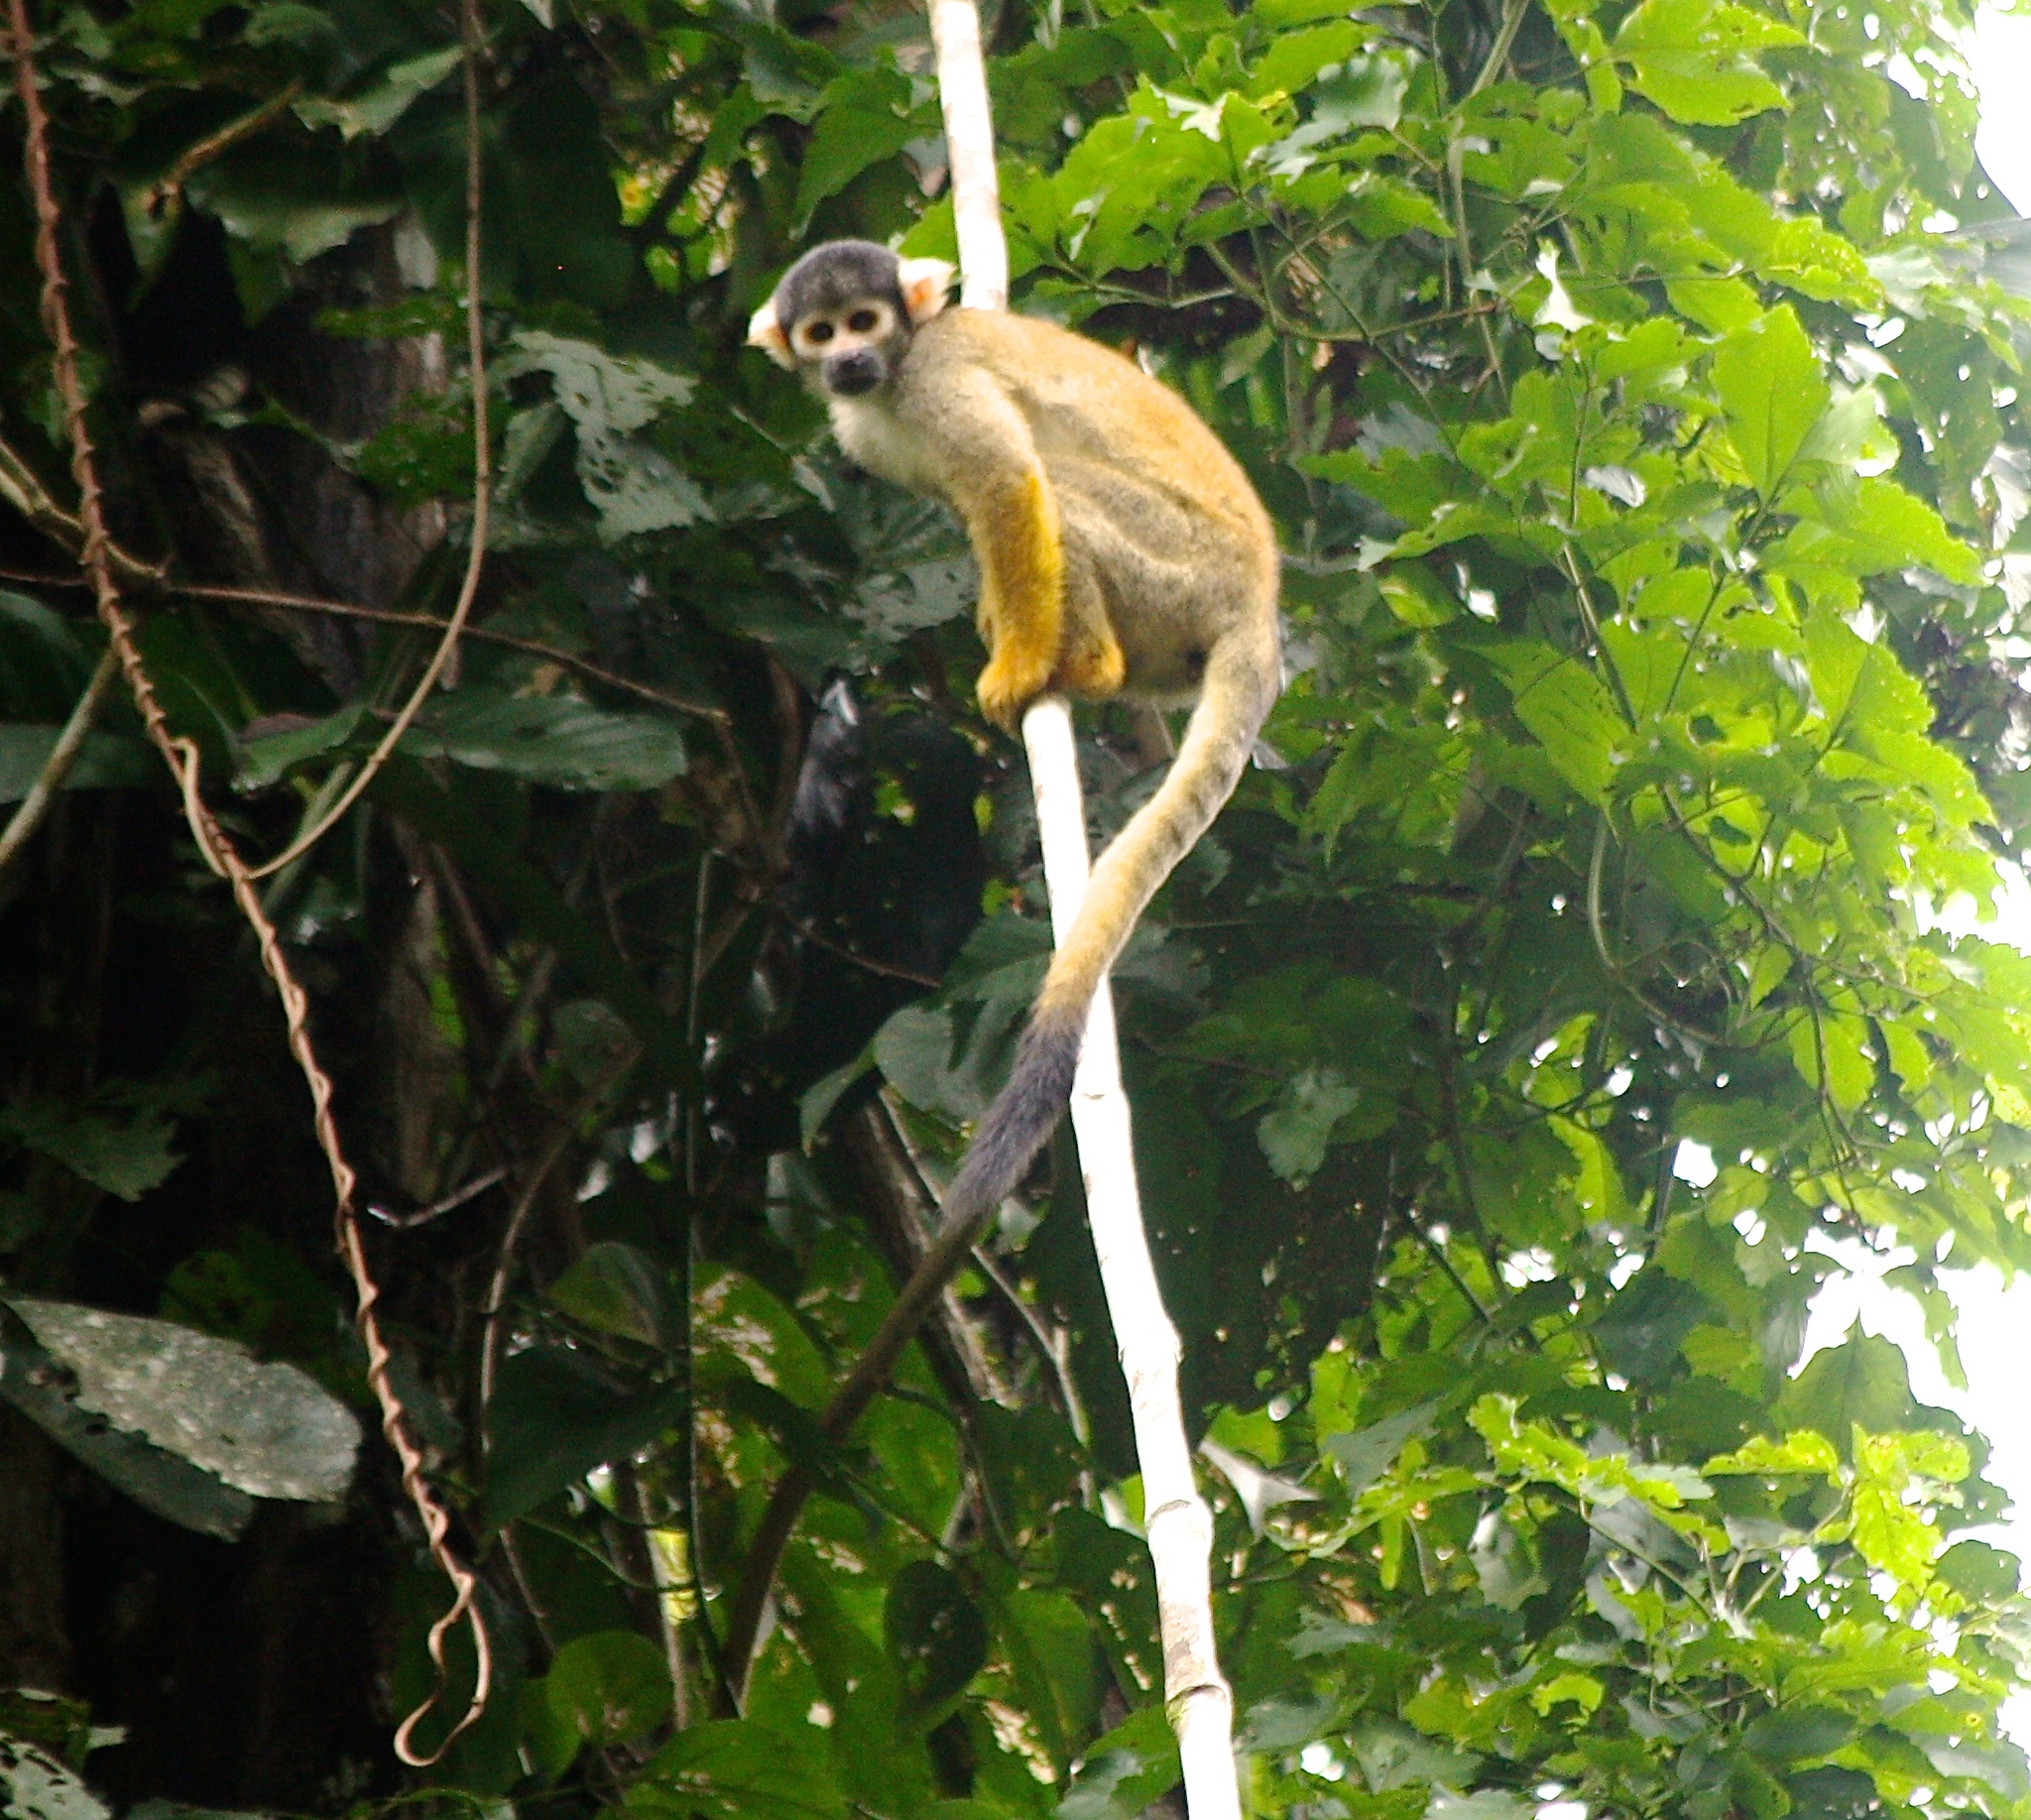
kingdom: Animalia
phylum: Chordata
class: Mammalia
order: Primates
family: Cebidae
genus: Saimiri
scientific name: Saimiri boliviensis
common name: Black-capped squirrel monkey
